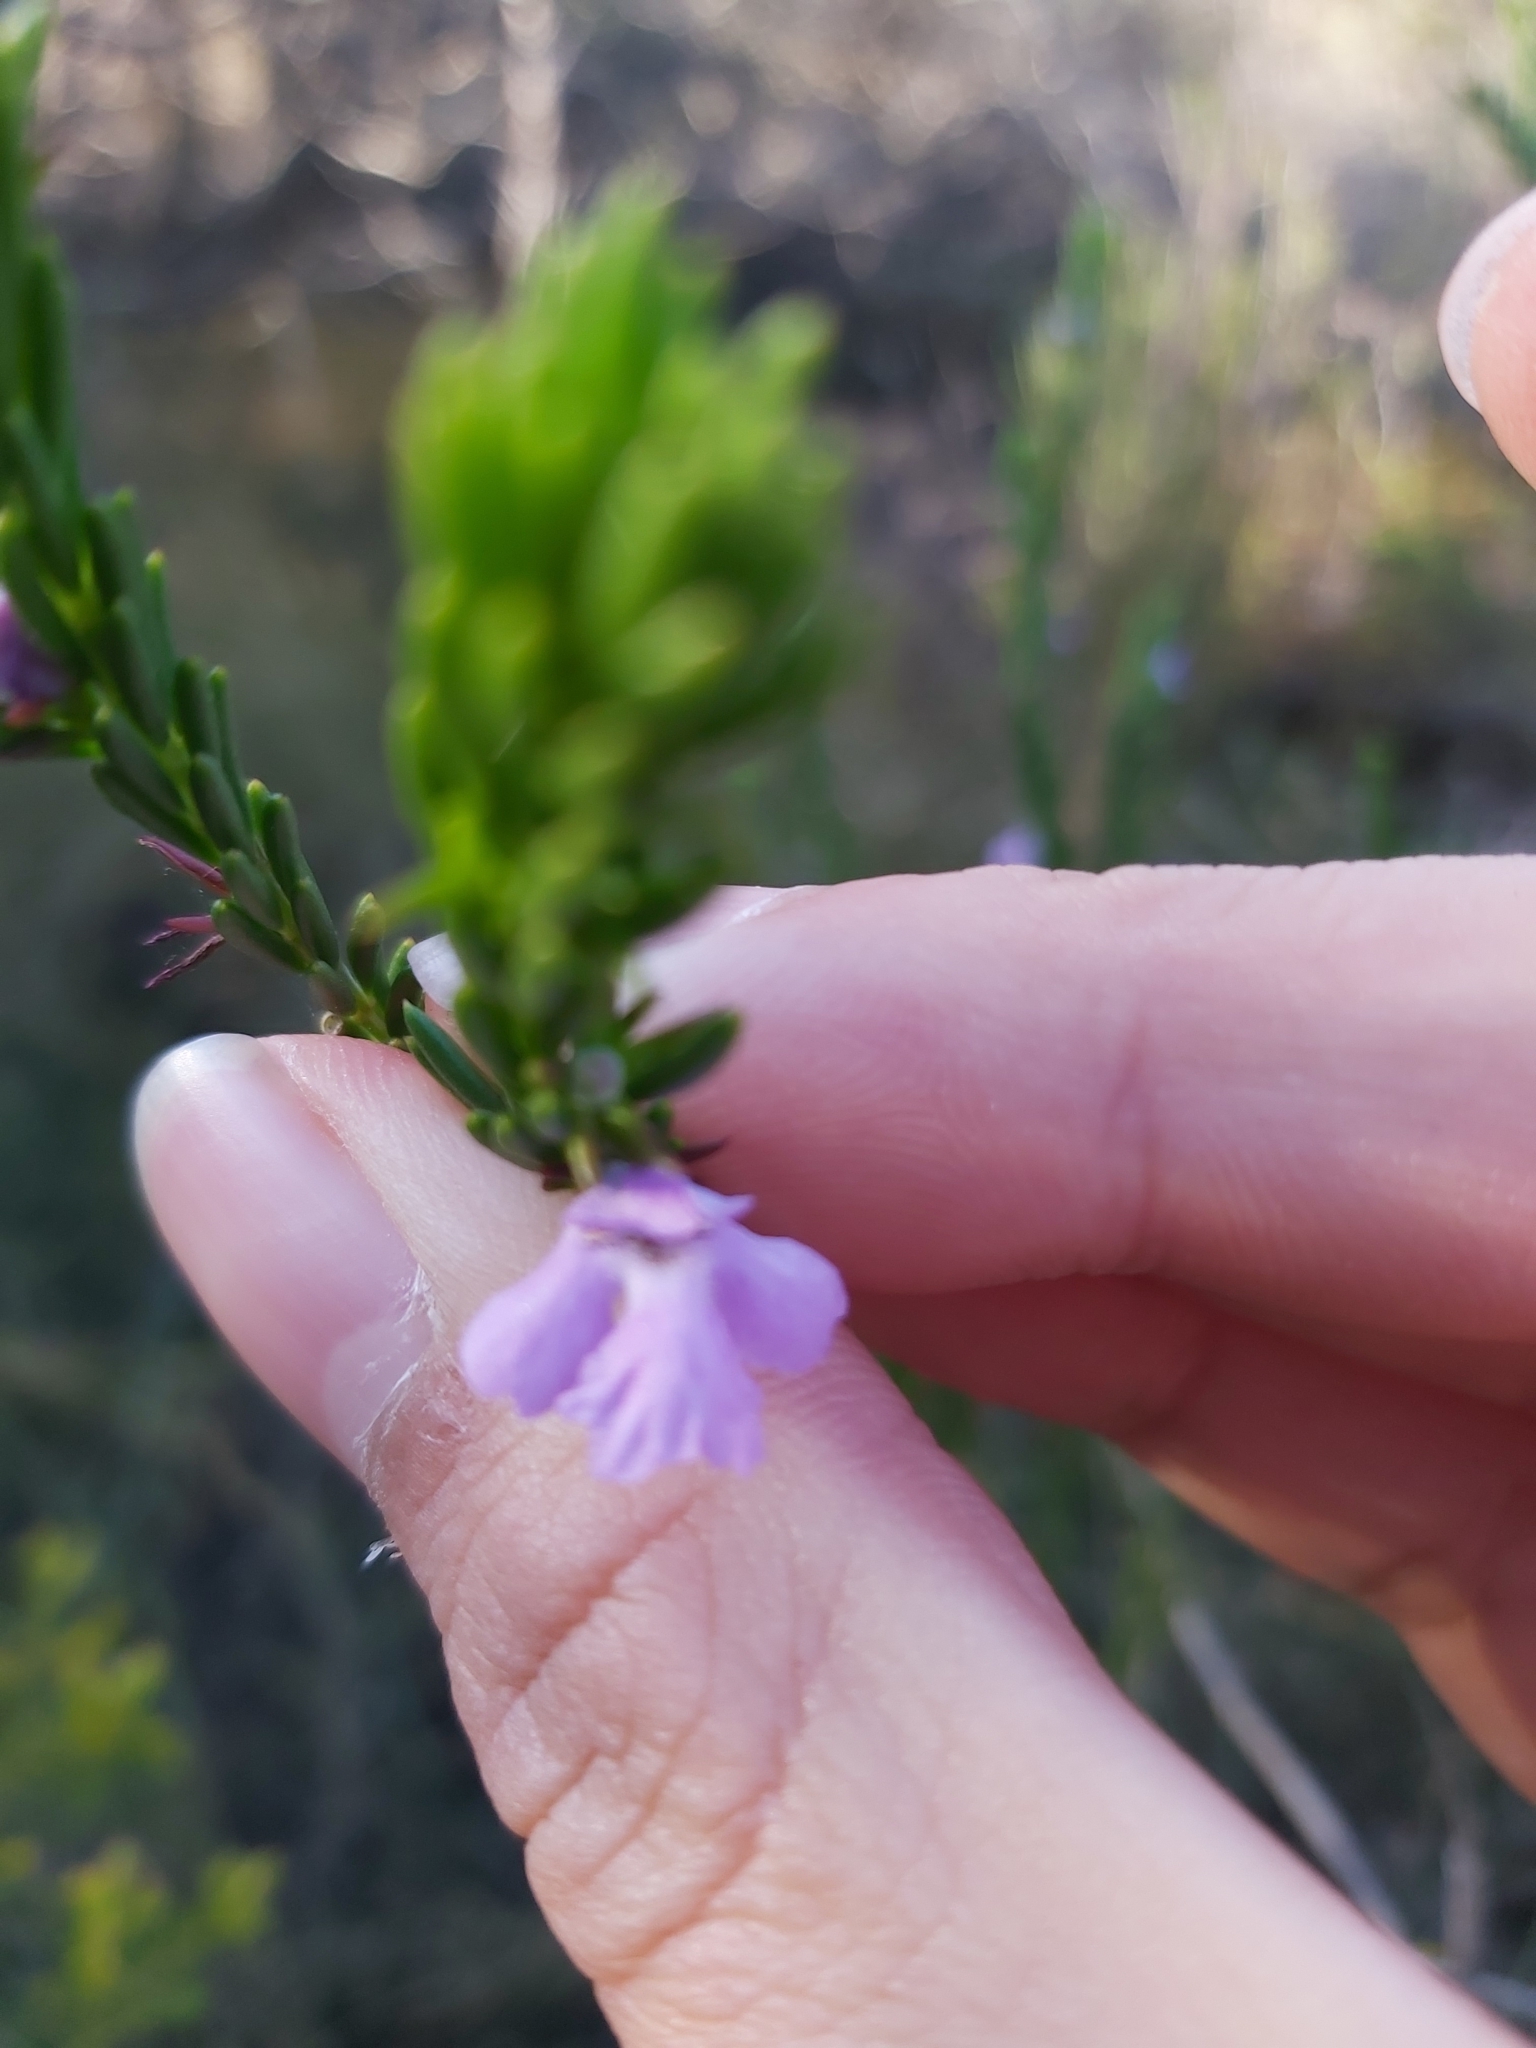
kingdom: Plantae
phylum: Tracheophyta
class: Magnoliopsida
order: Lamiales
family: Lamiaceae
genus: Hemigenia
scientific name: Hemigenia purpurea
